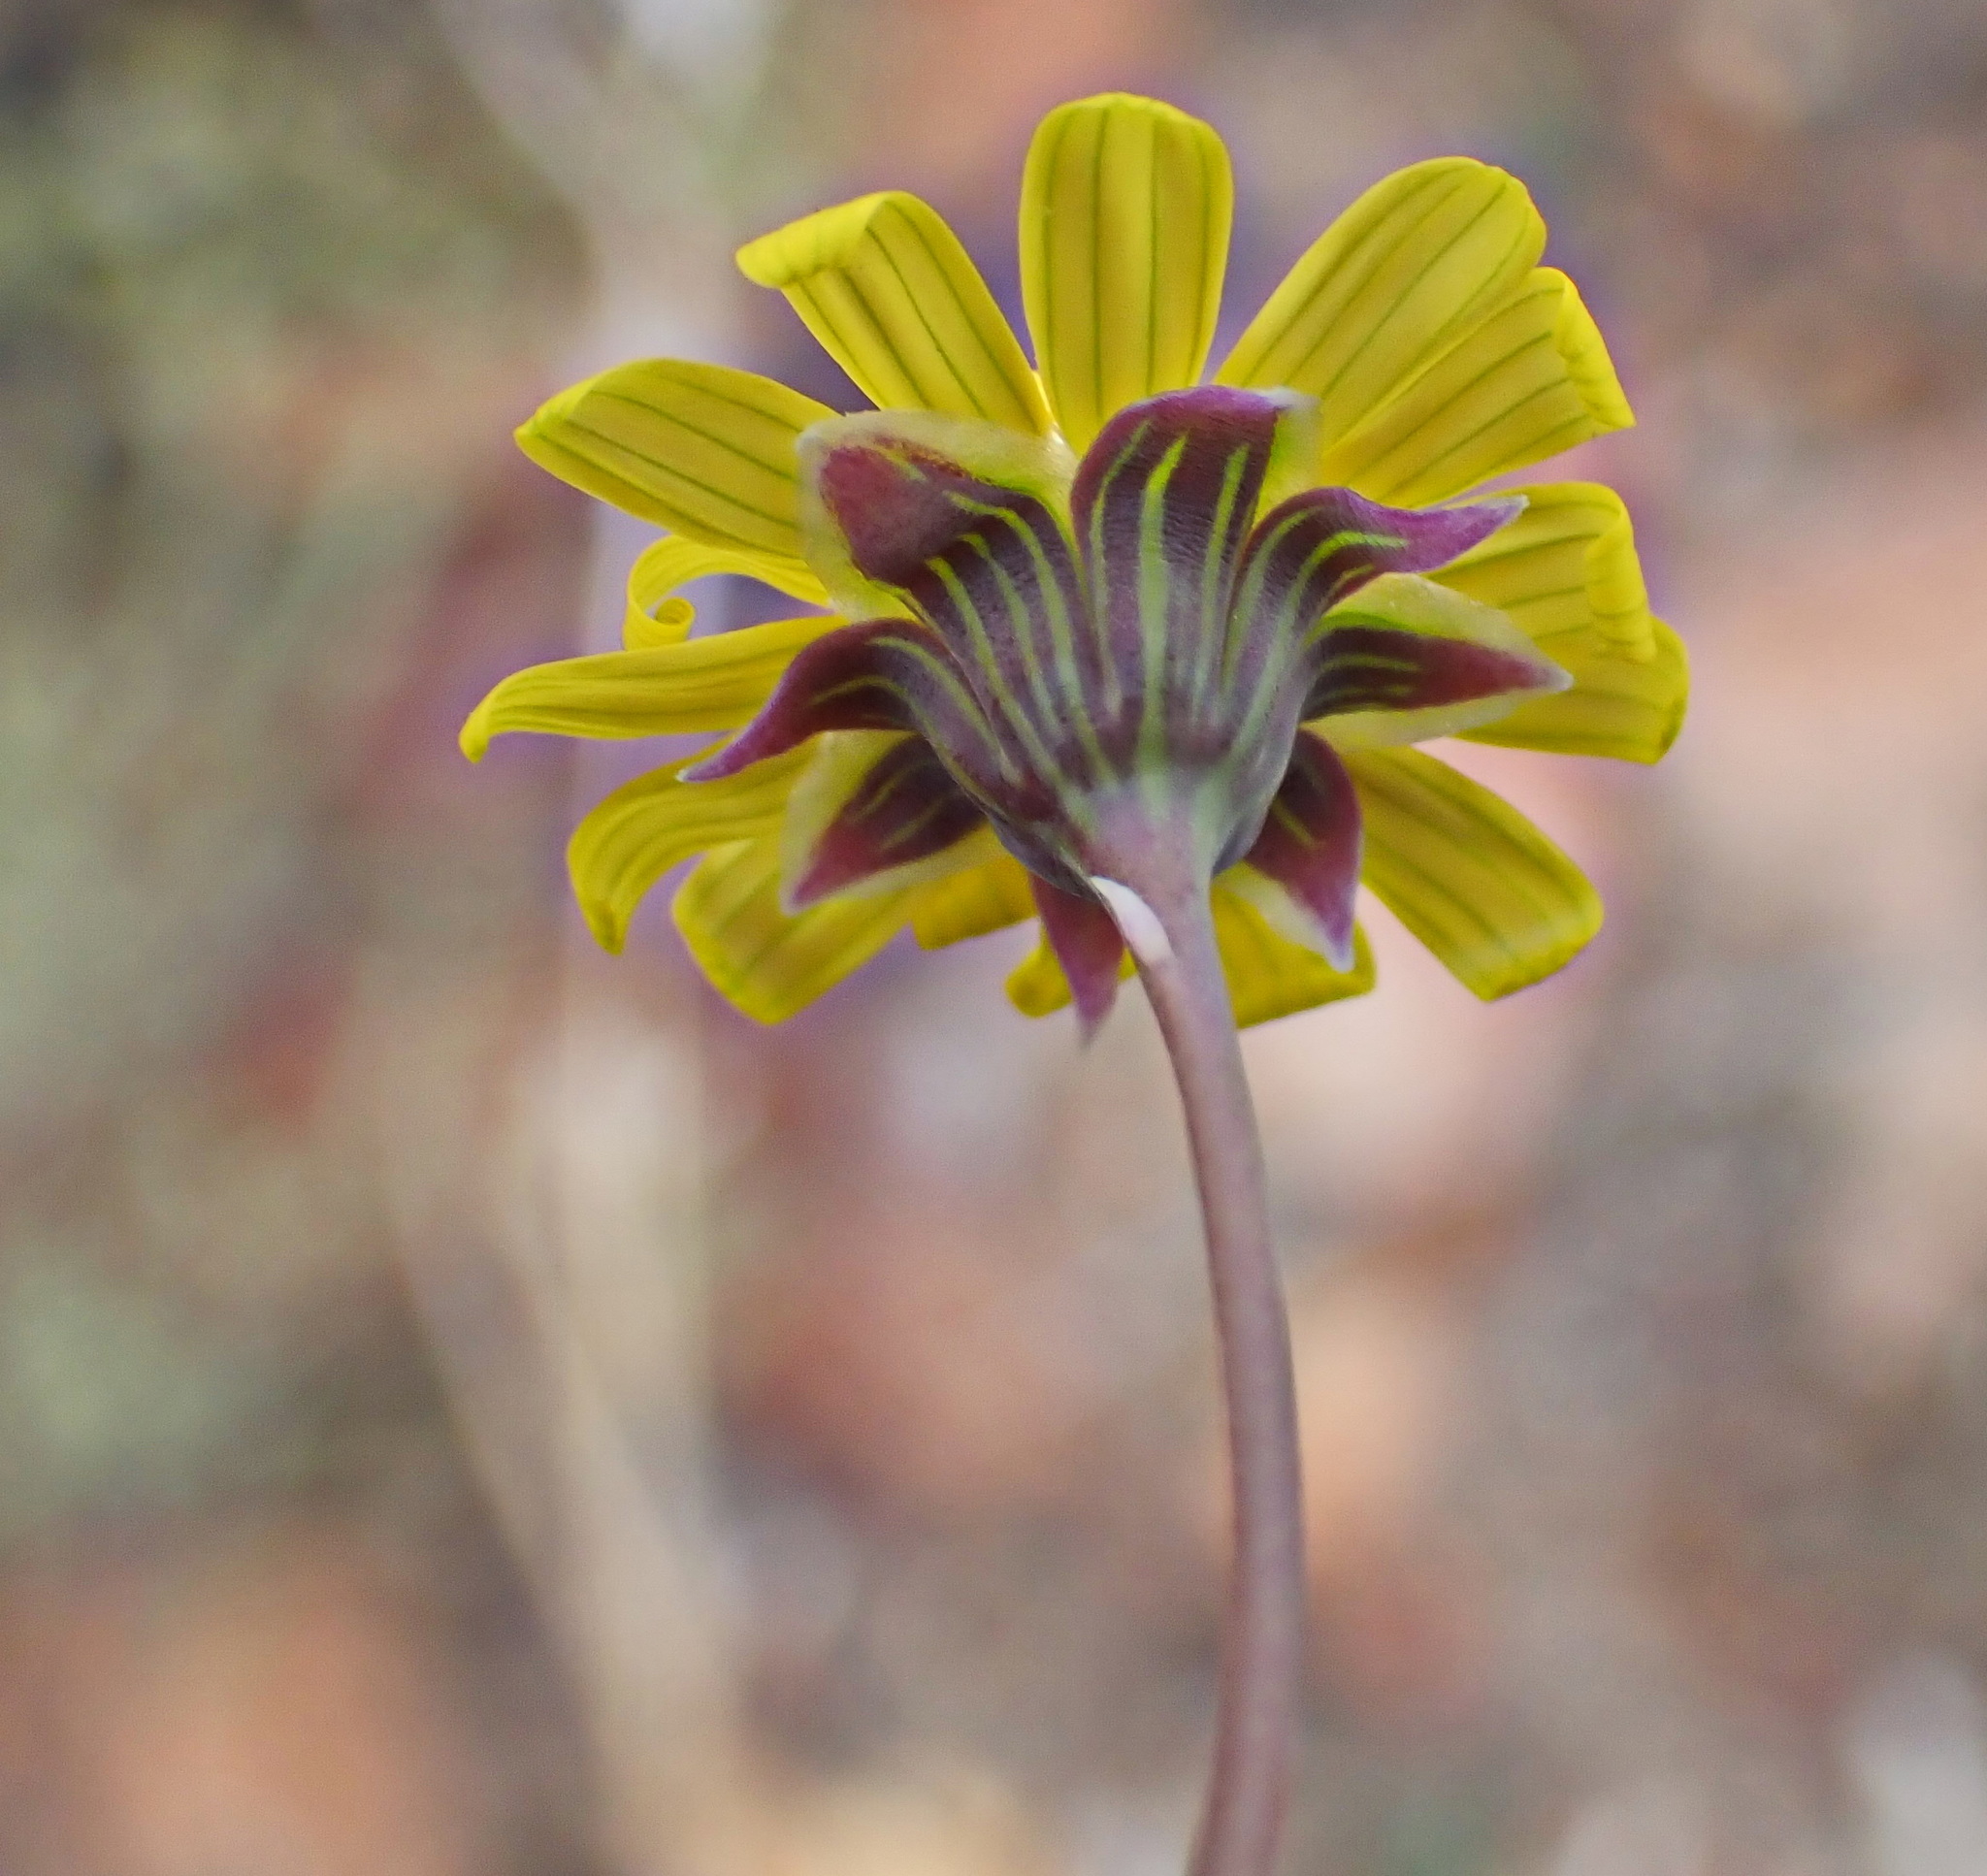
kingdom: Plantae
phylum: Tracheophyta
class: Magnoliopsida
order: Asterales
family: Asteraceae
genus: Crassothonna
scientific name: Crassothonna cacalioides
